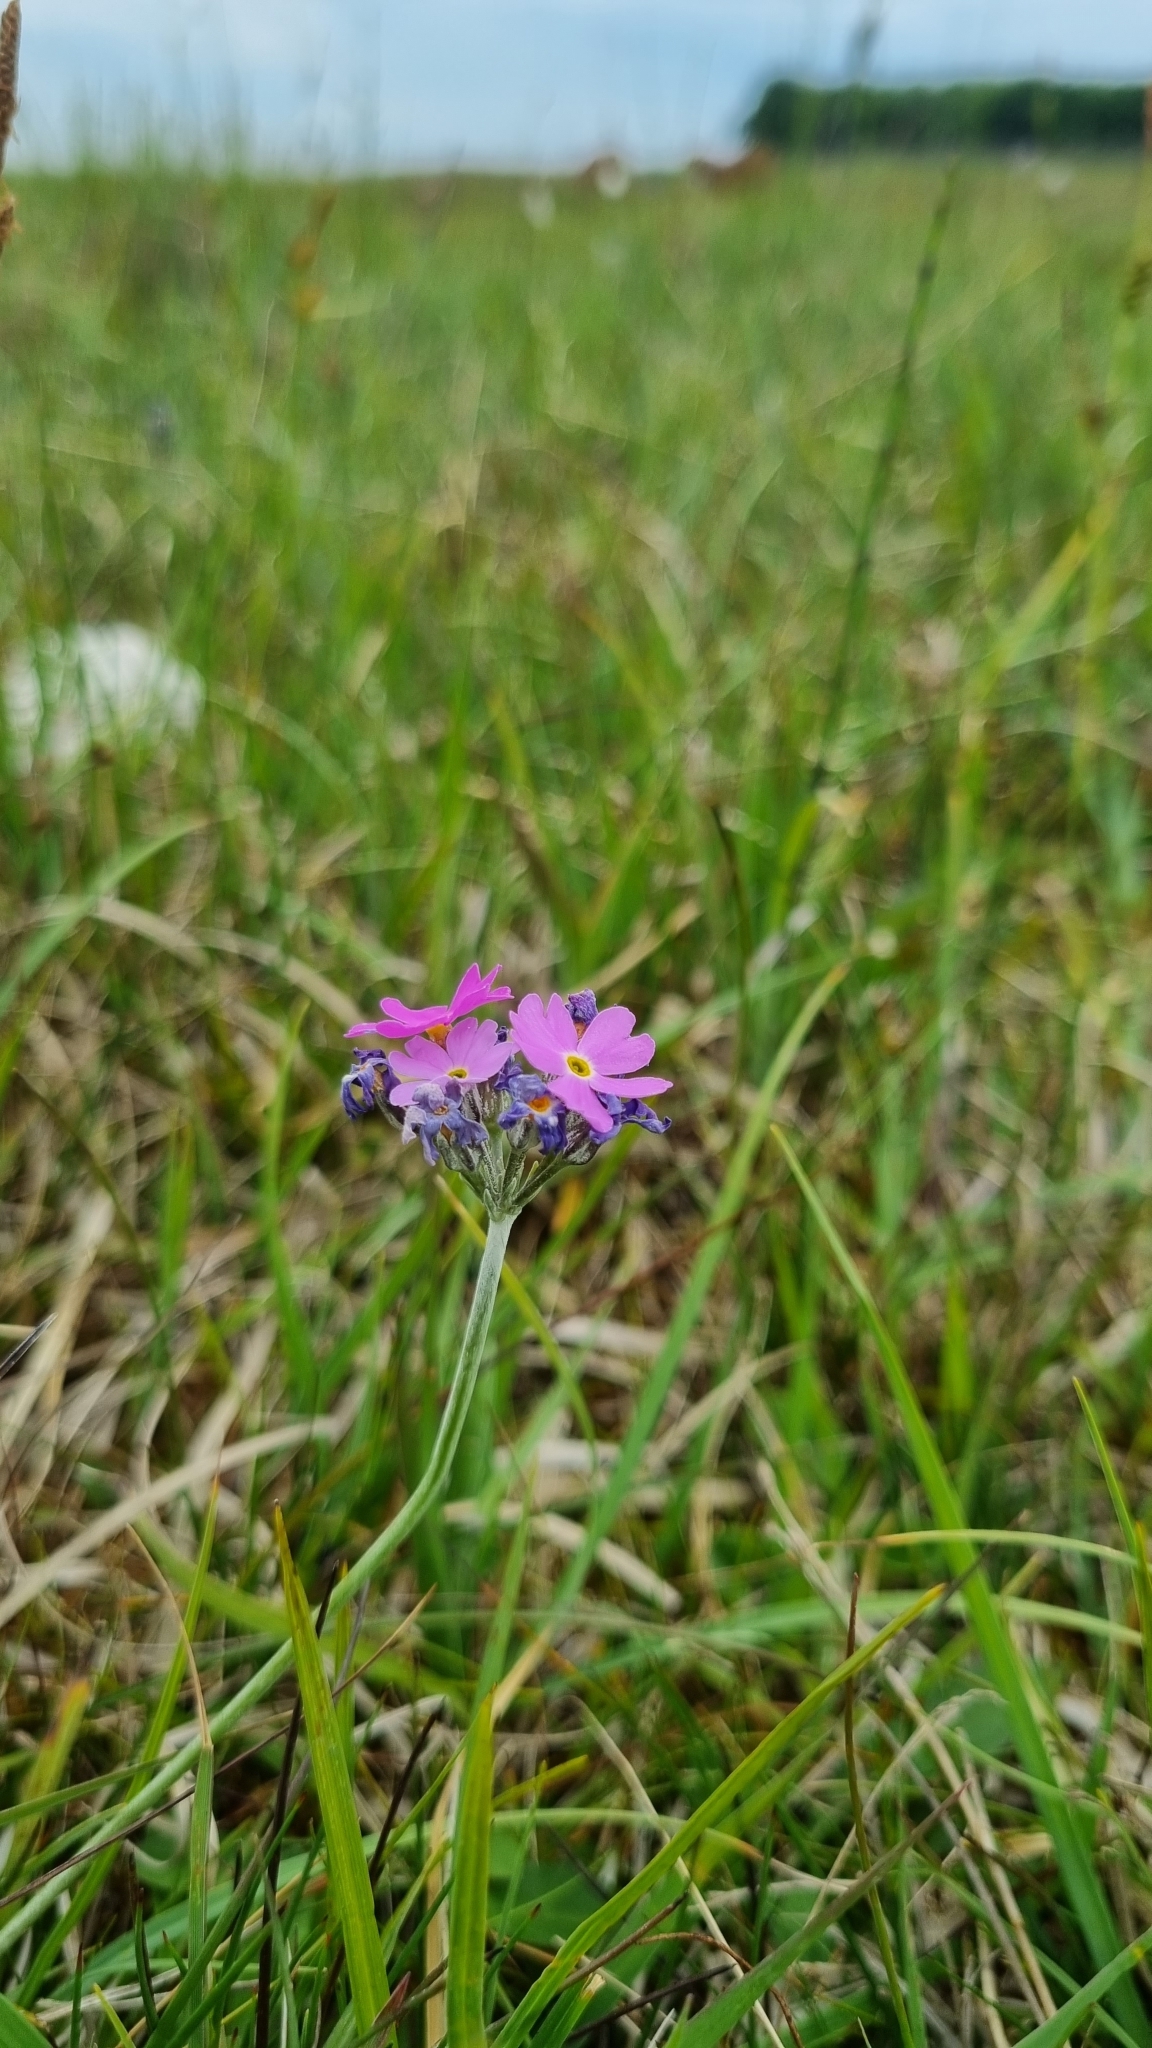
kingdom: Plantae
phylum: Tracheophyta
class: Magnoliopsida
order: Ericales
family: Primulaceae
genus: Primula
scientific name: Primula farinosa
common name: Bird's-eye primrose
